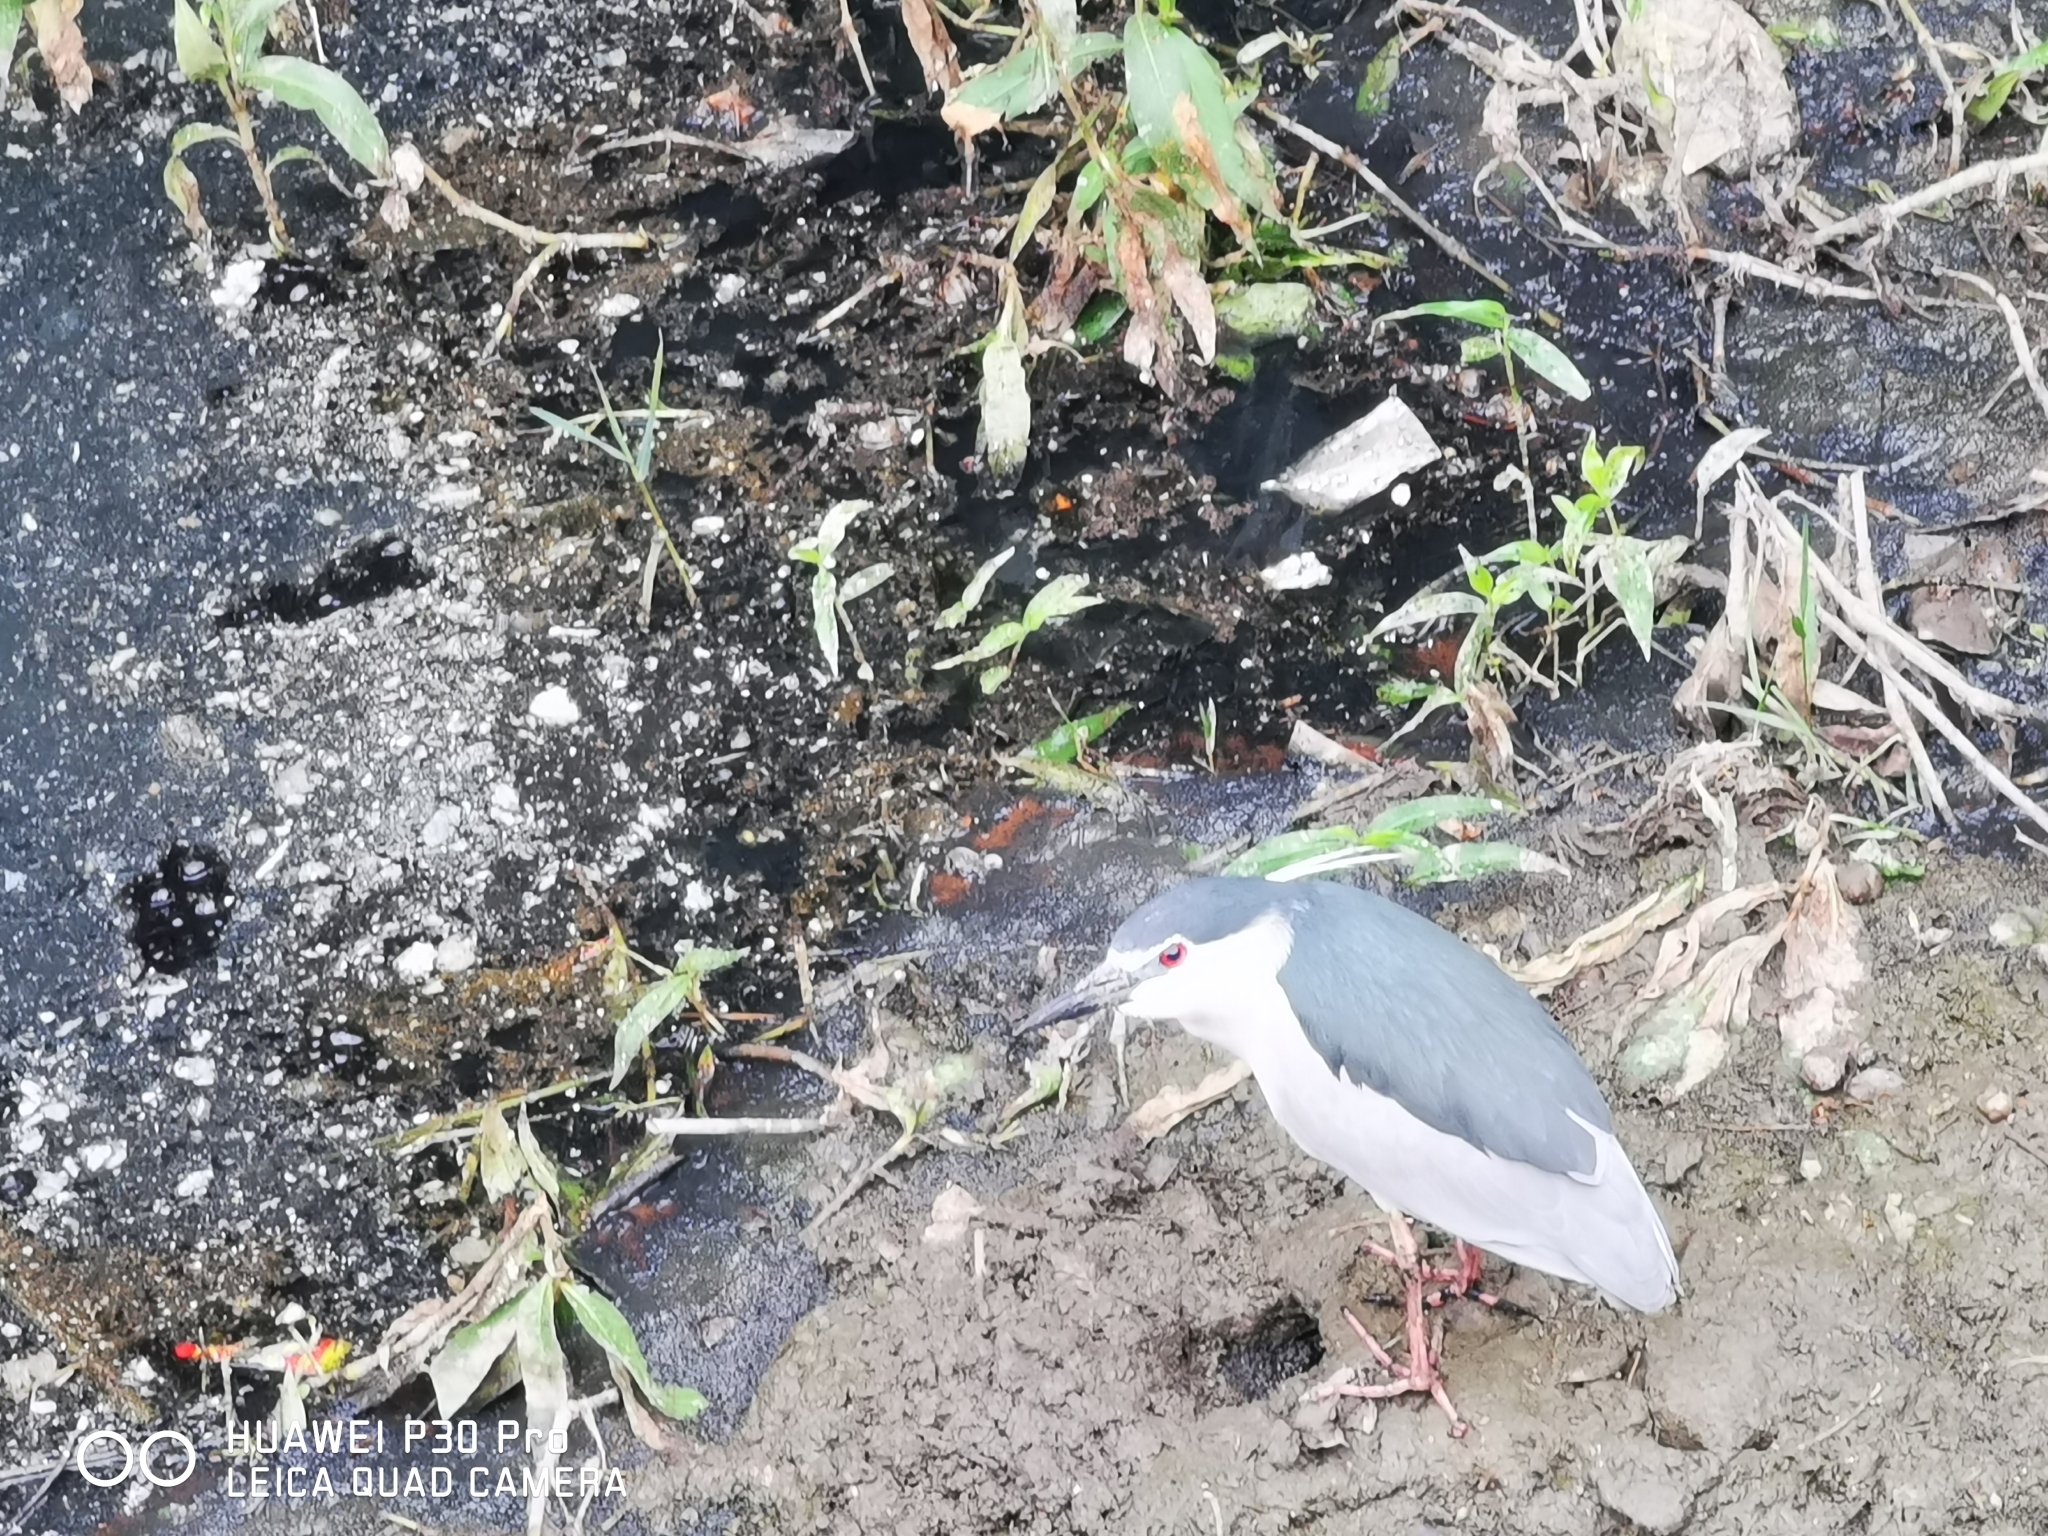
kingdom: Animalia
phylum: Chordata
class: Aves
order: Pelecaniformes
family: Ardeidae
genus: Nycticorax
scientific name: Nycticorax nycticorax
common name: Black-crowned night heron
